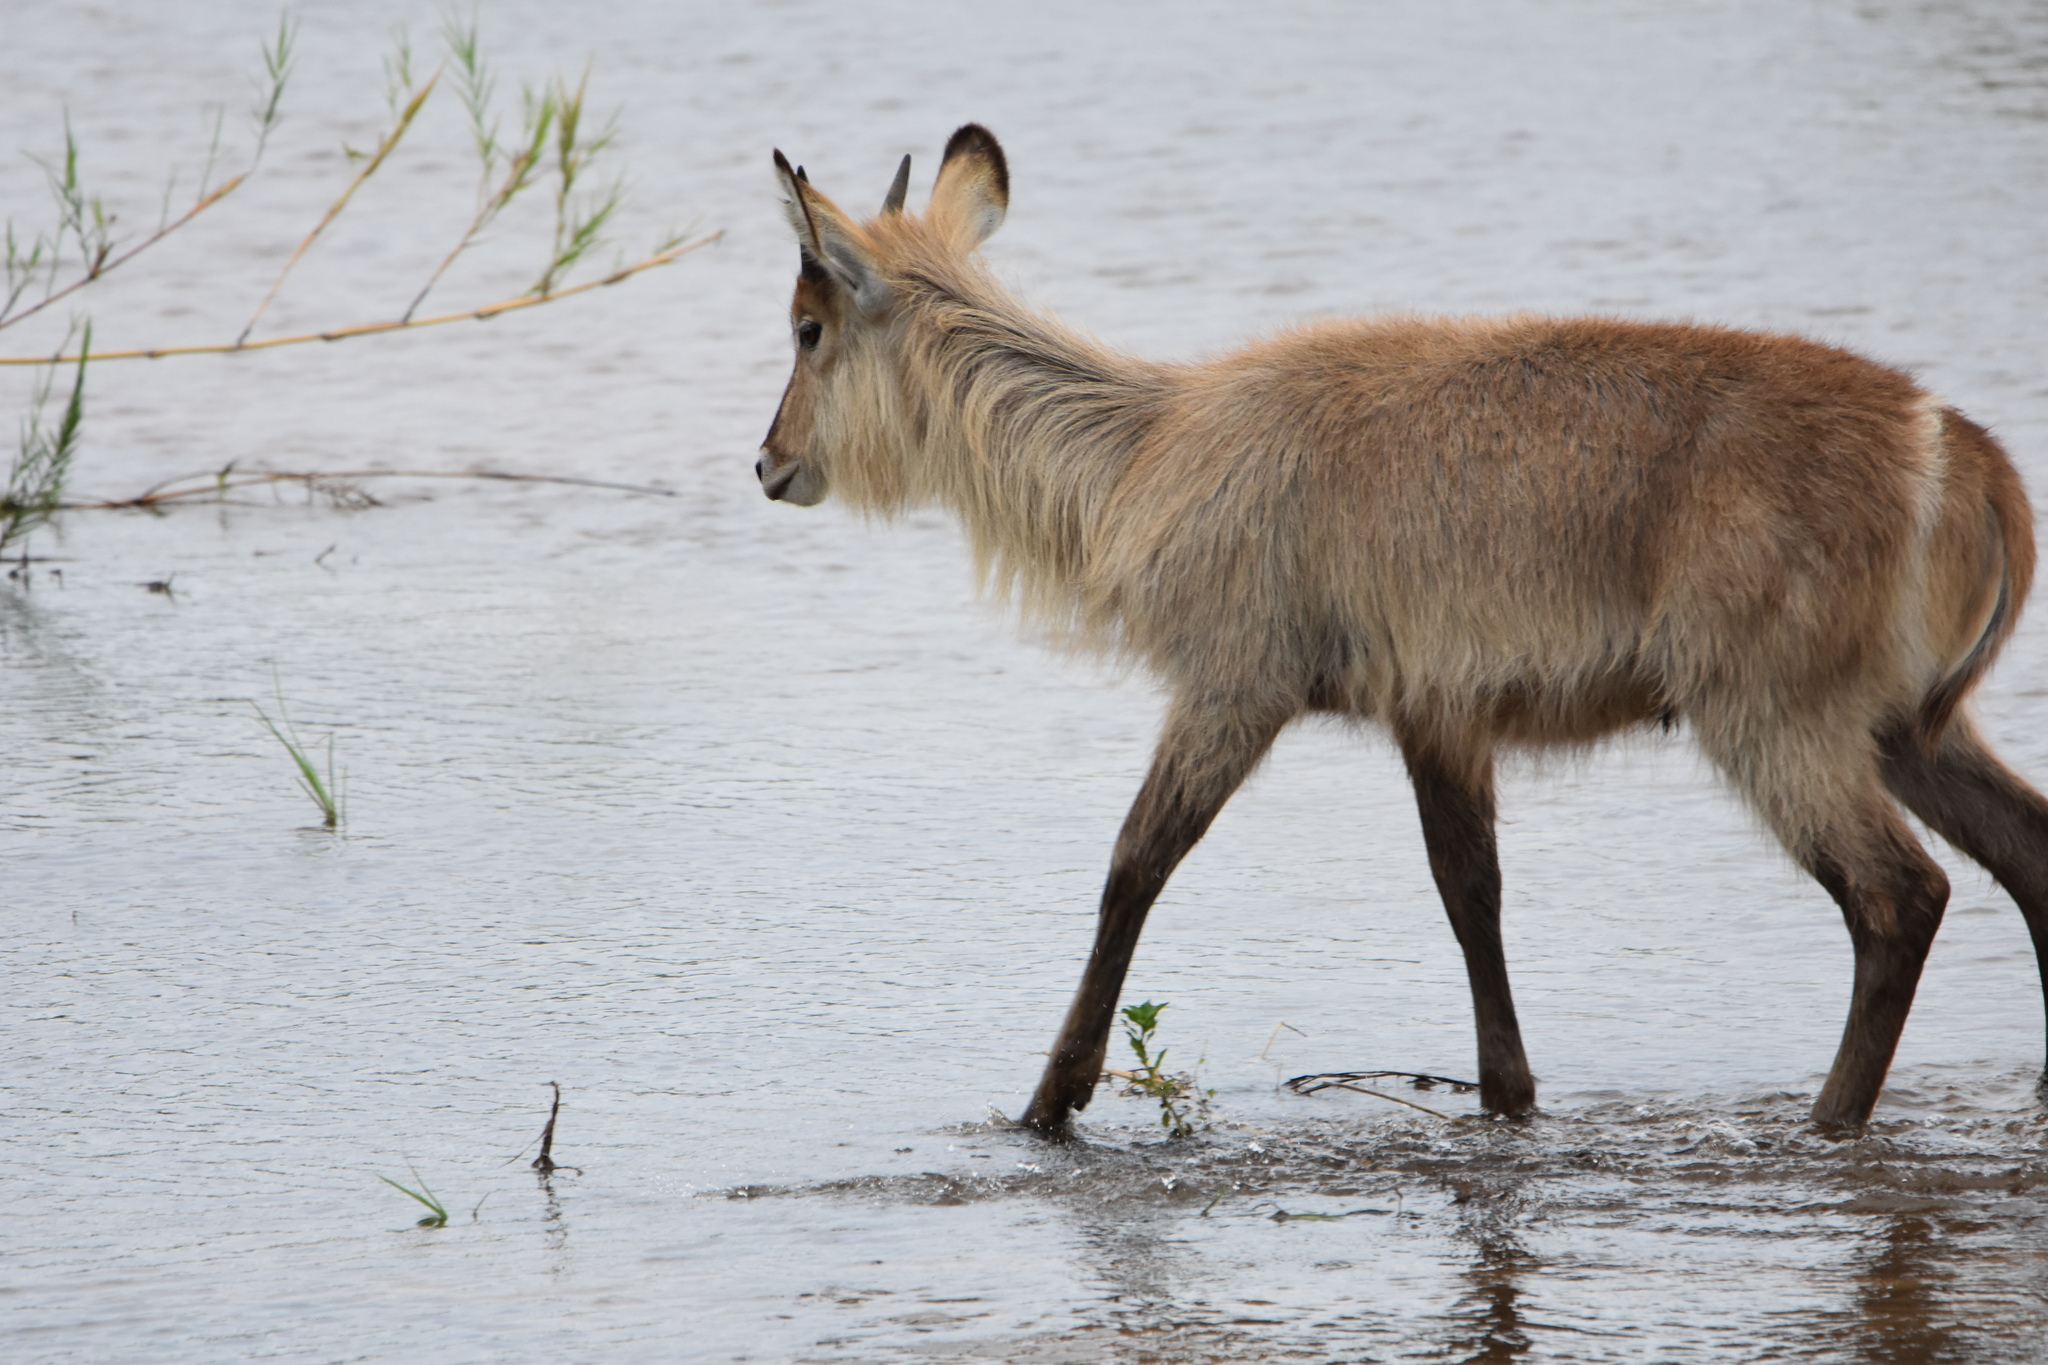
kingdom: Animalia
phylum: Chordata
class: Mammalia
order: Artiodactyla
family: Bovidae
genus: Kobus
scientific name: Kobus ellipsiprymnus
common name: Waterbuck
